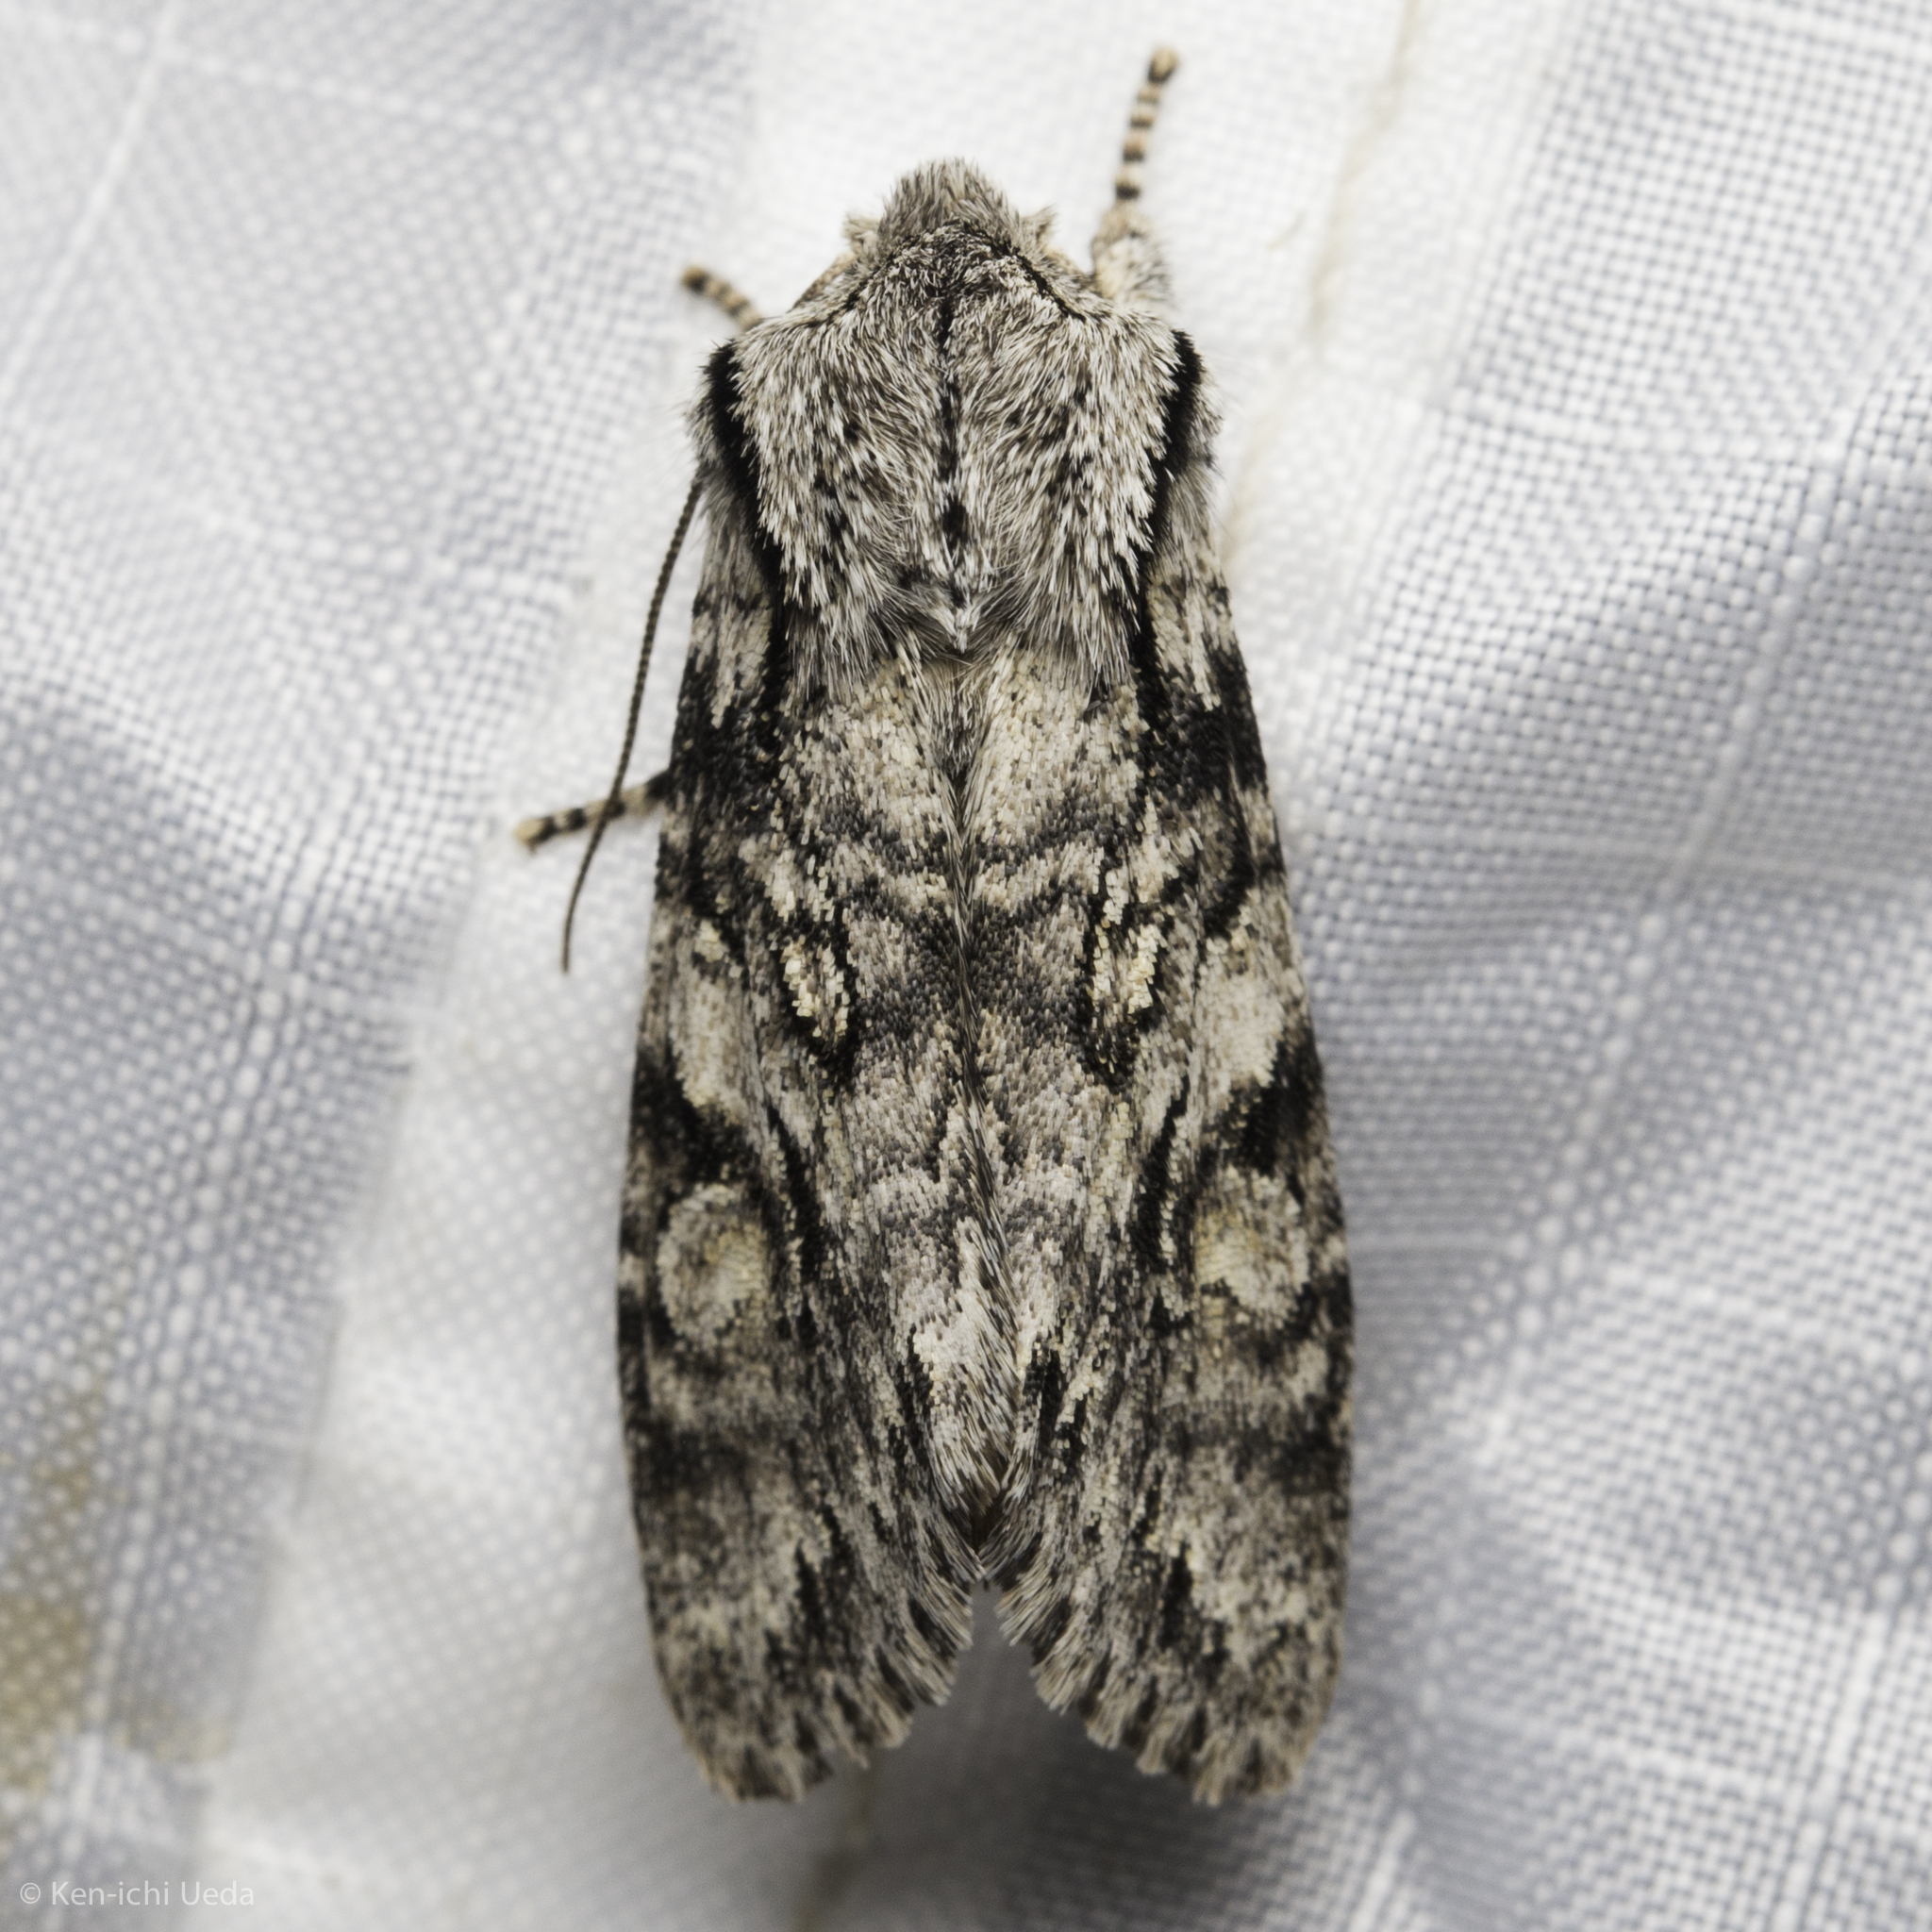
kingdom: Animalia
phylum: Arthropoda
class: Insecta
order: Lepidoptera
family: Noctuidae
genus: Egira
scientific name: Egira simplex
